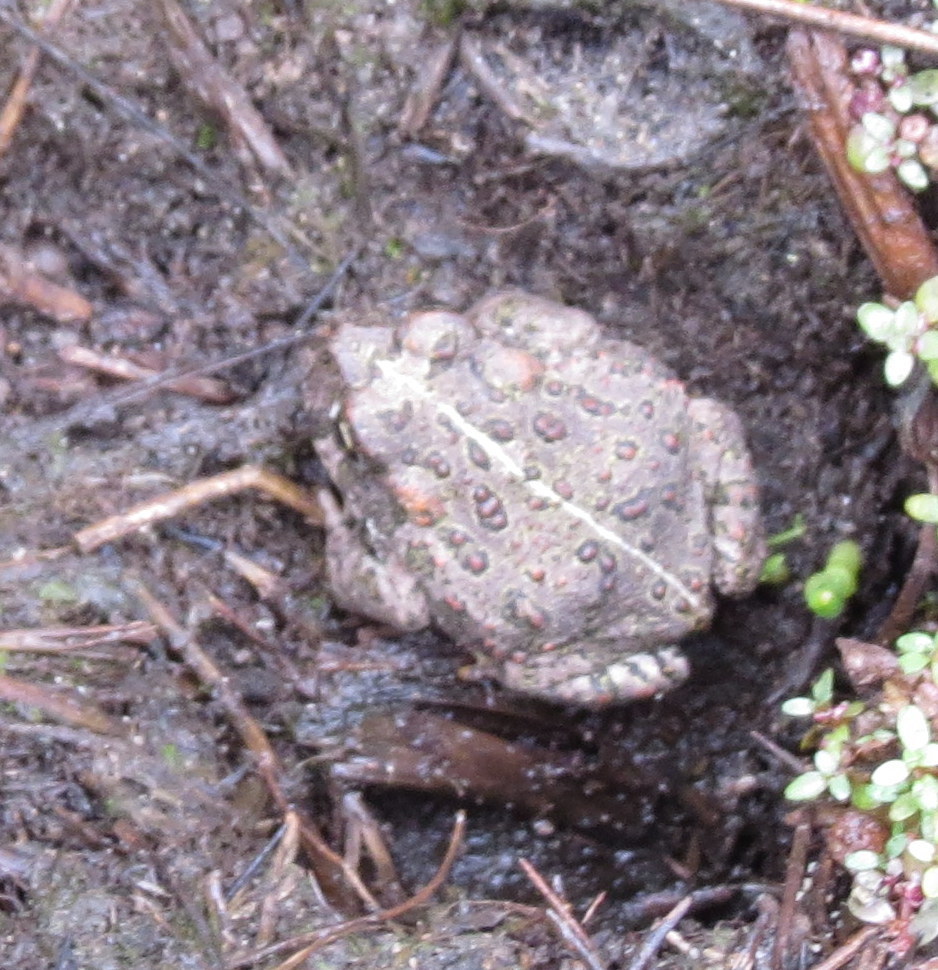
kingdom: Animalia
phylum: Chordata
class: Amphibia
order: Anura
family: Bufonidae
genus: Anaxyrus
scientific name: Anaxyrus boreas
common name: Western toad
